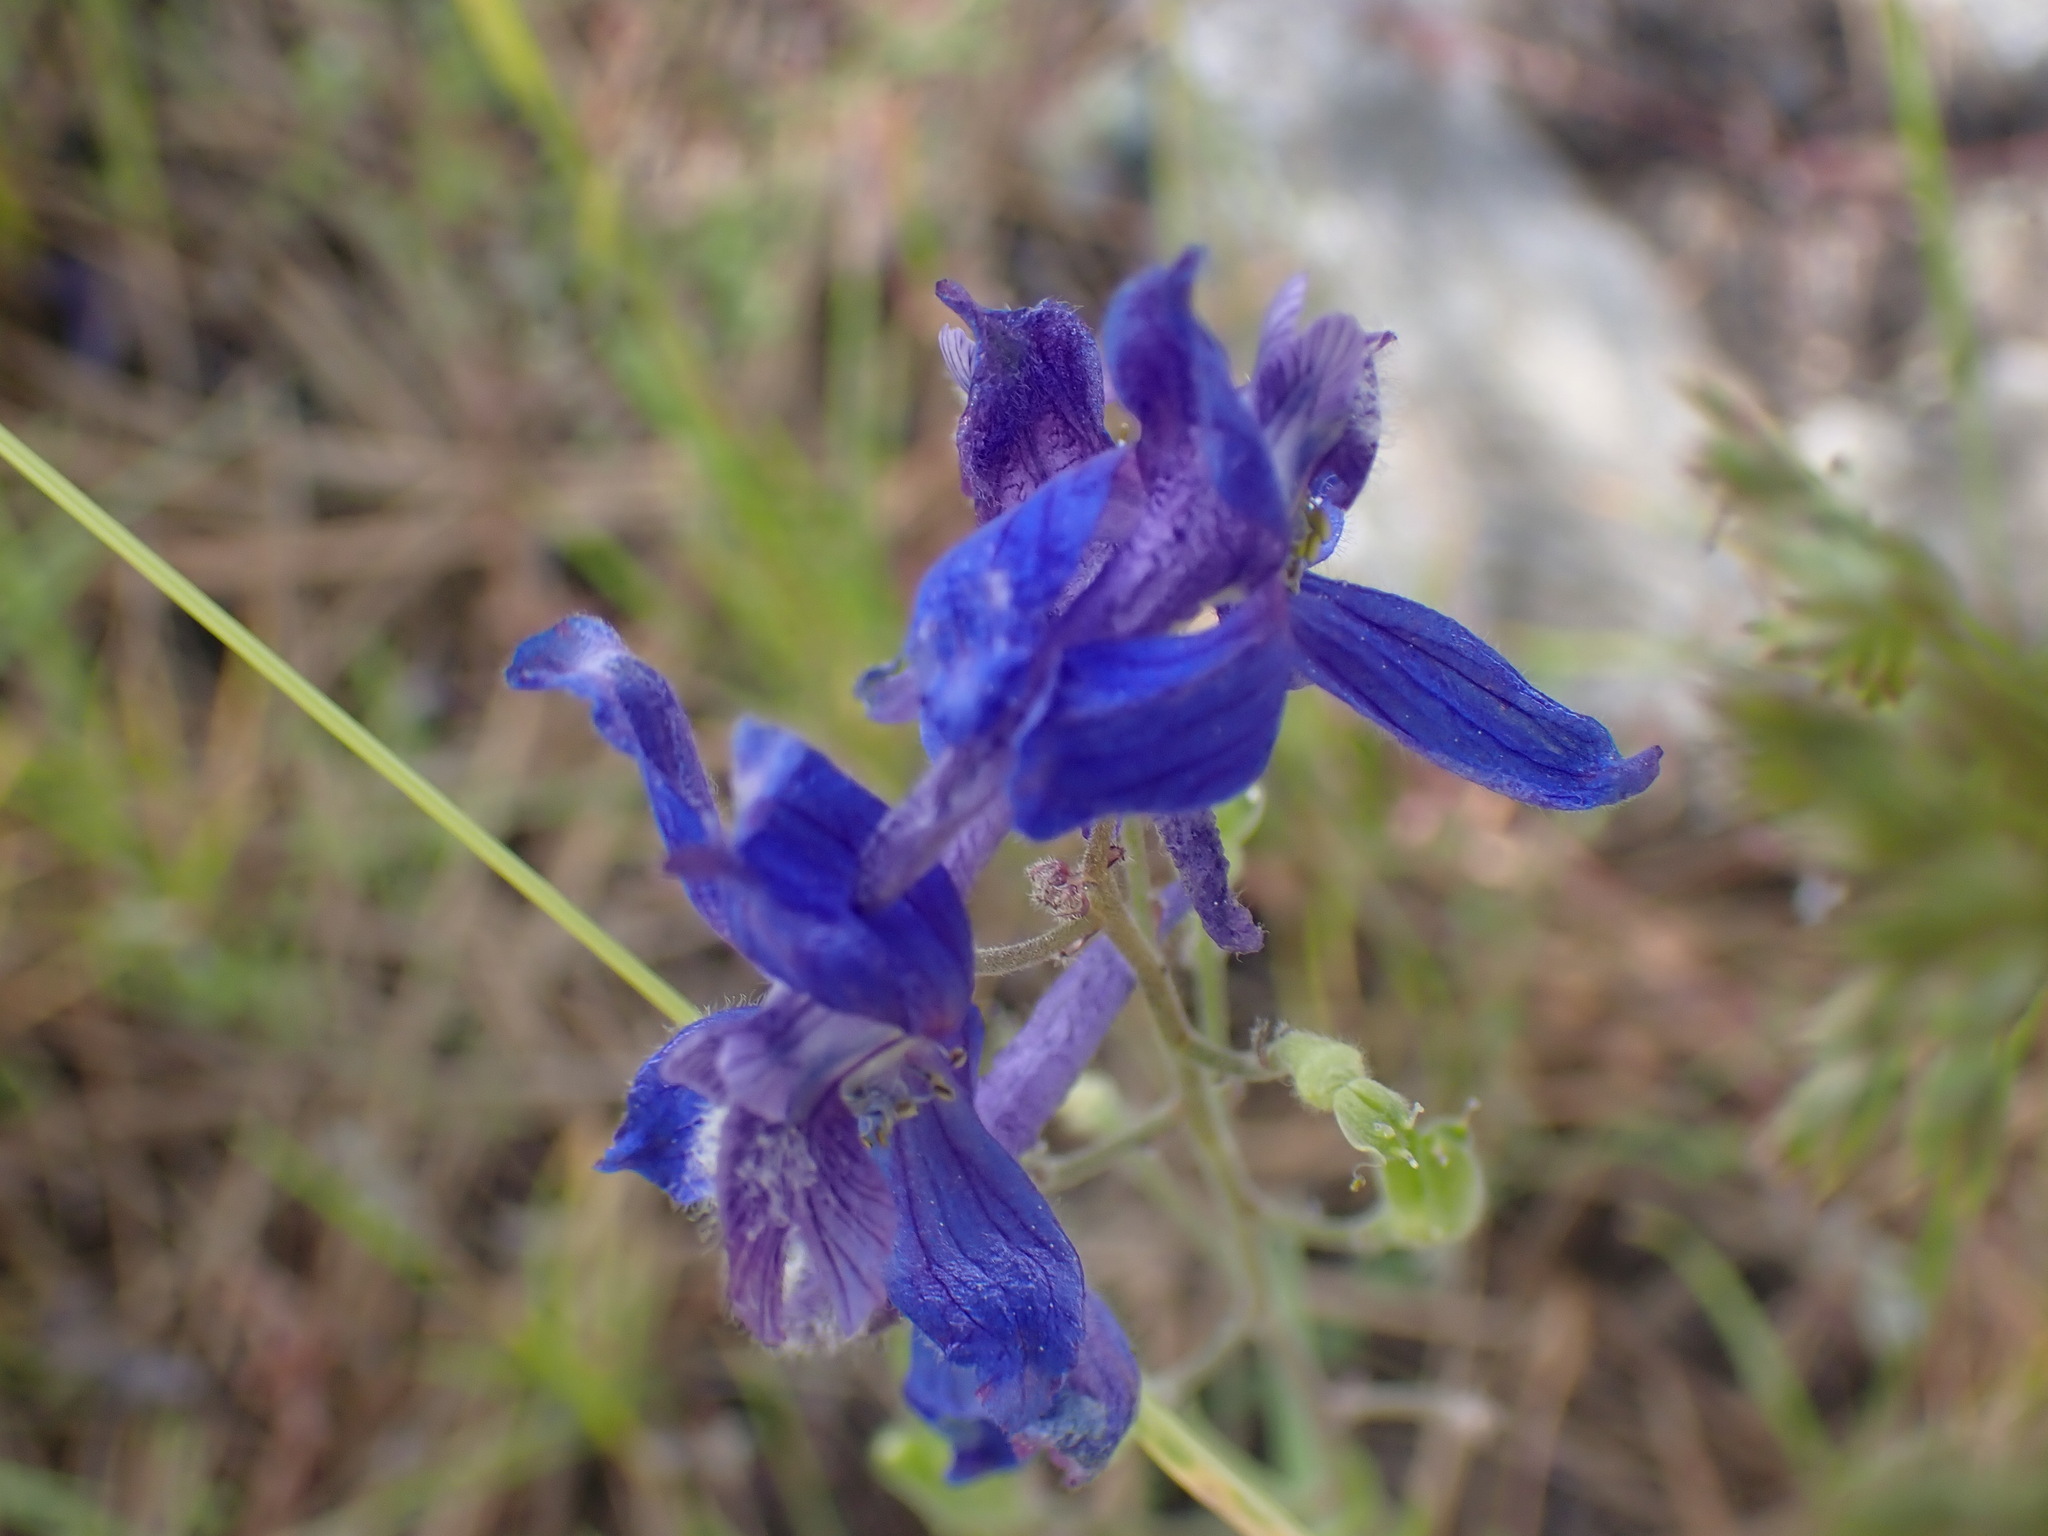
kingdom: Plantae
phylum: Tracheophyta
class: Magnoliopsida
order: Ranunculales
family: Ranunculaceae
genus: Delphinium
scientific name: Delphinium nuttallianum
